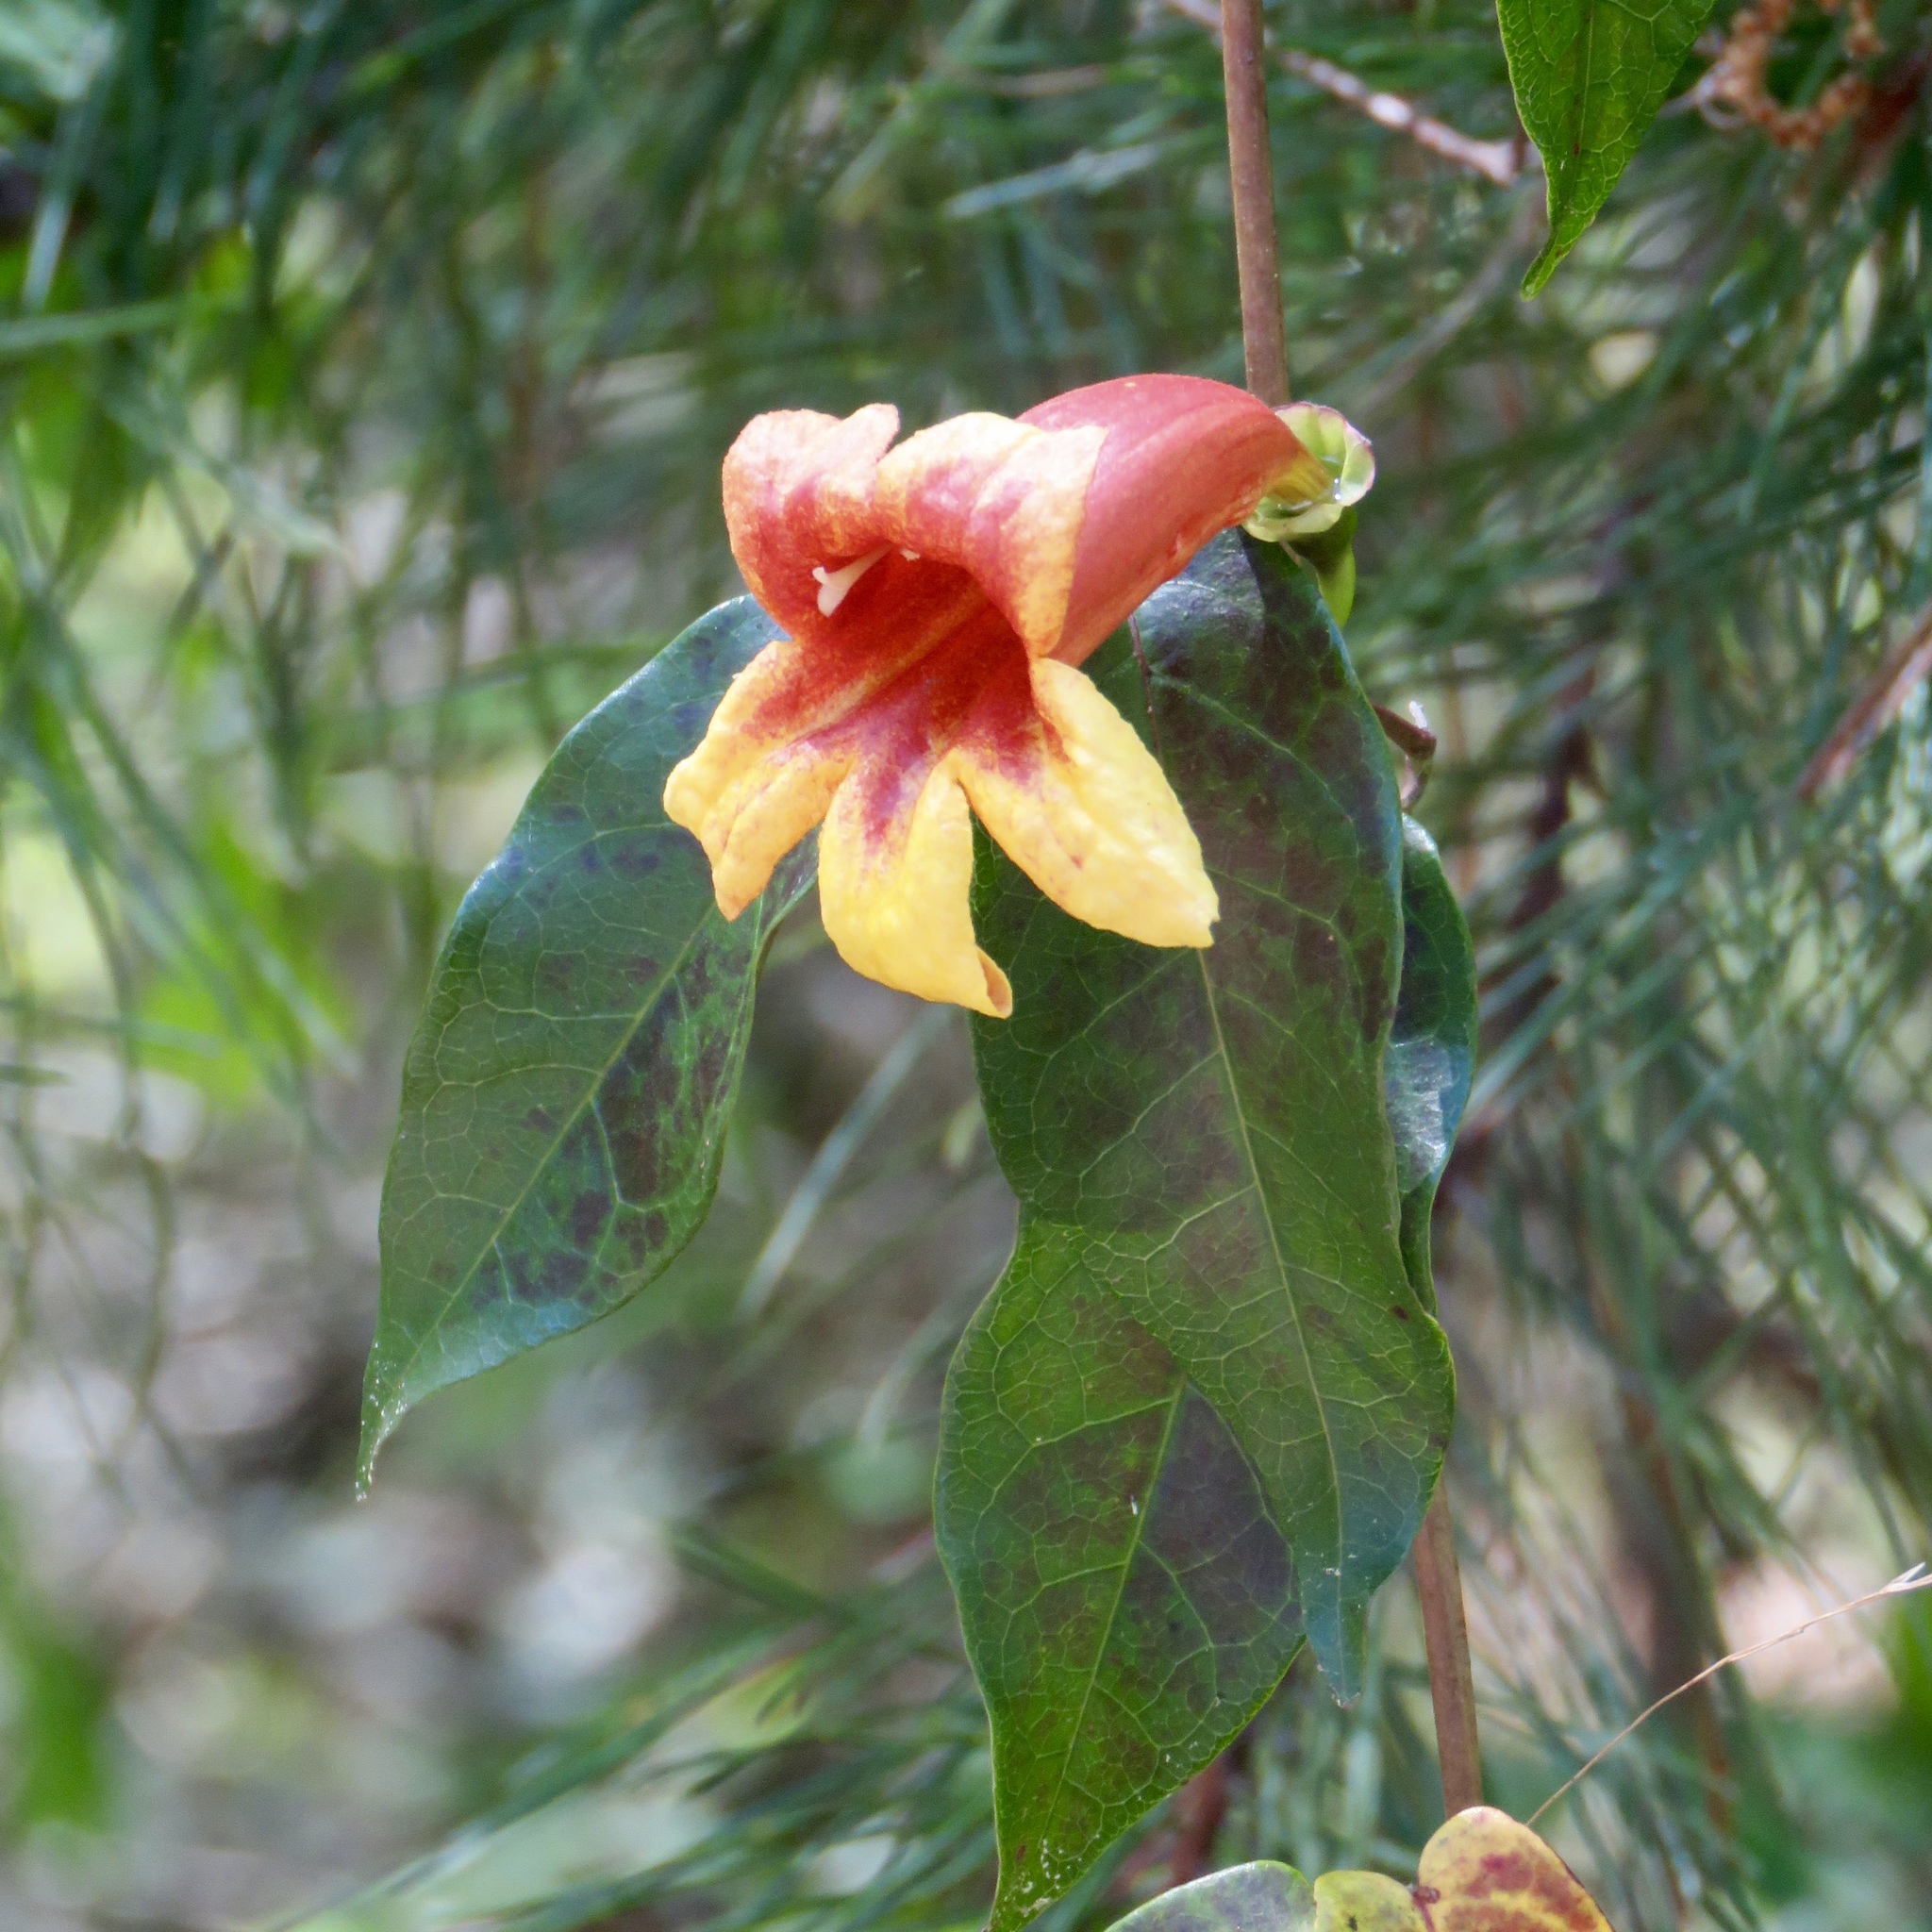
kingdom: Plantae
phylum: Tracheophyta
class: Magnoliopsida
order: Lamiales
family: Bignoniaceae
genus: Bignonia
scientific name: Bignonia capreolata
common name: Crossvine
